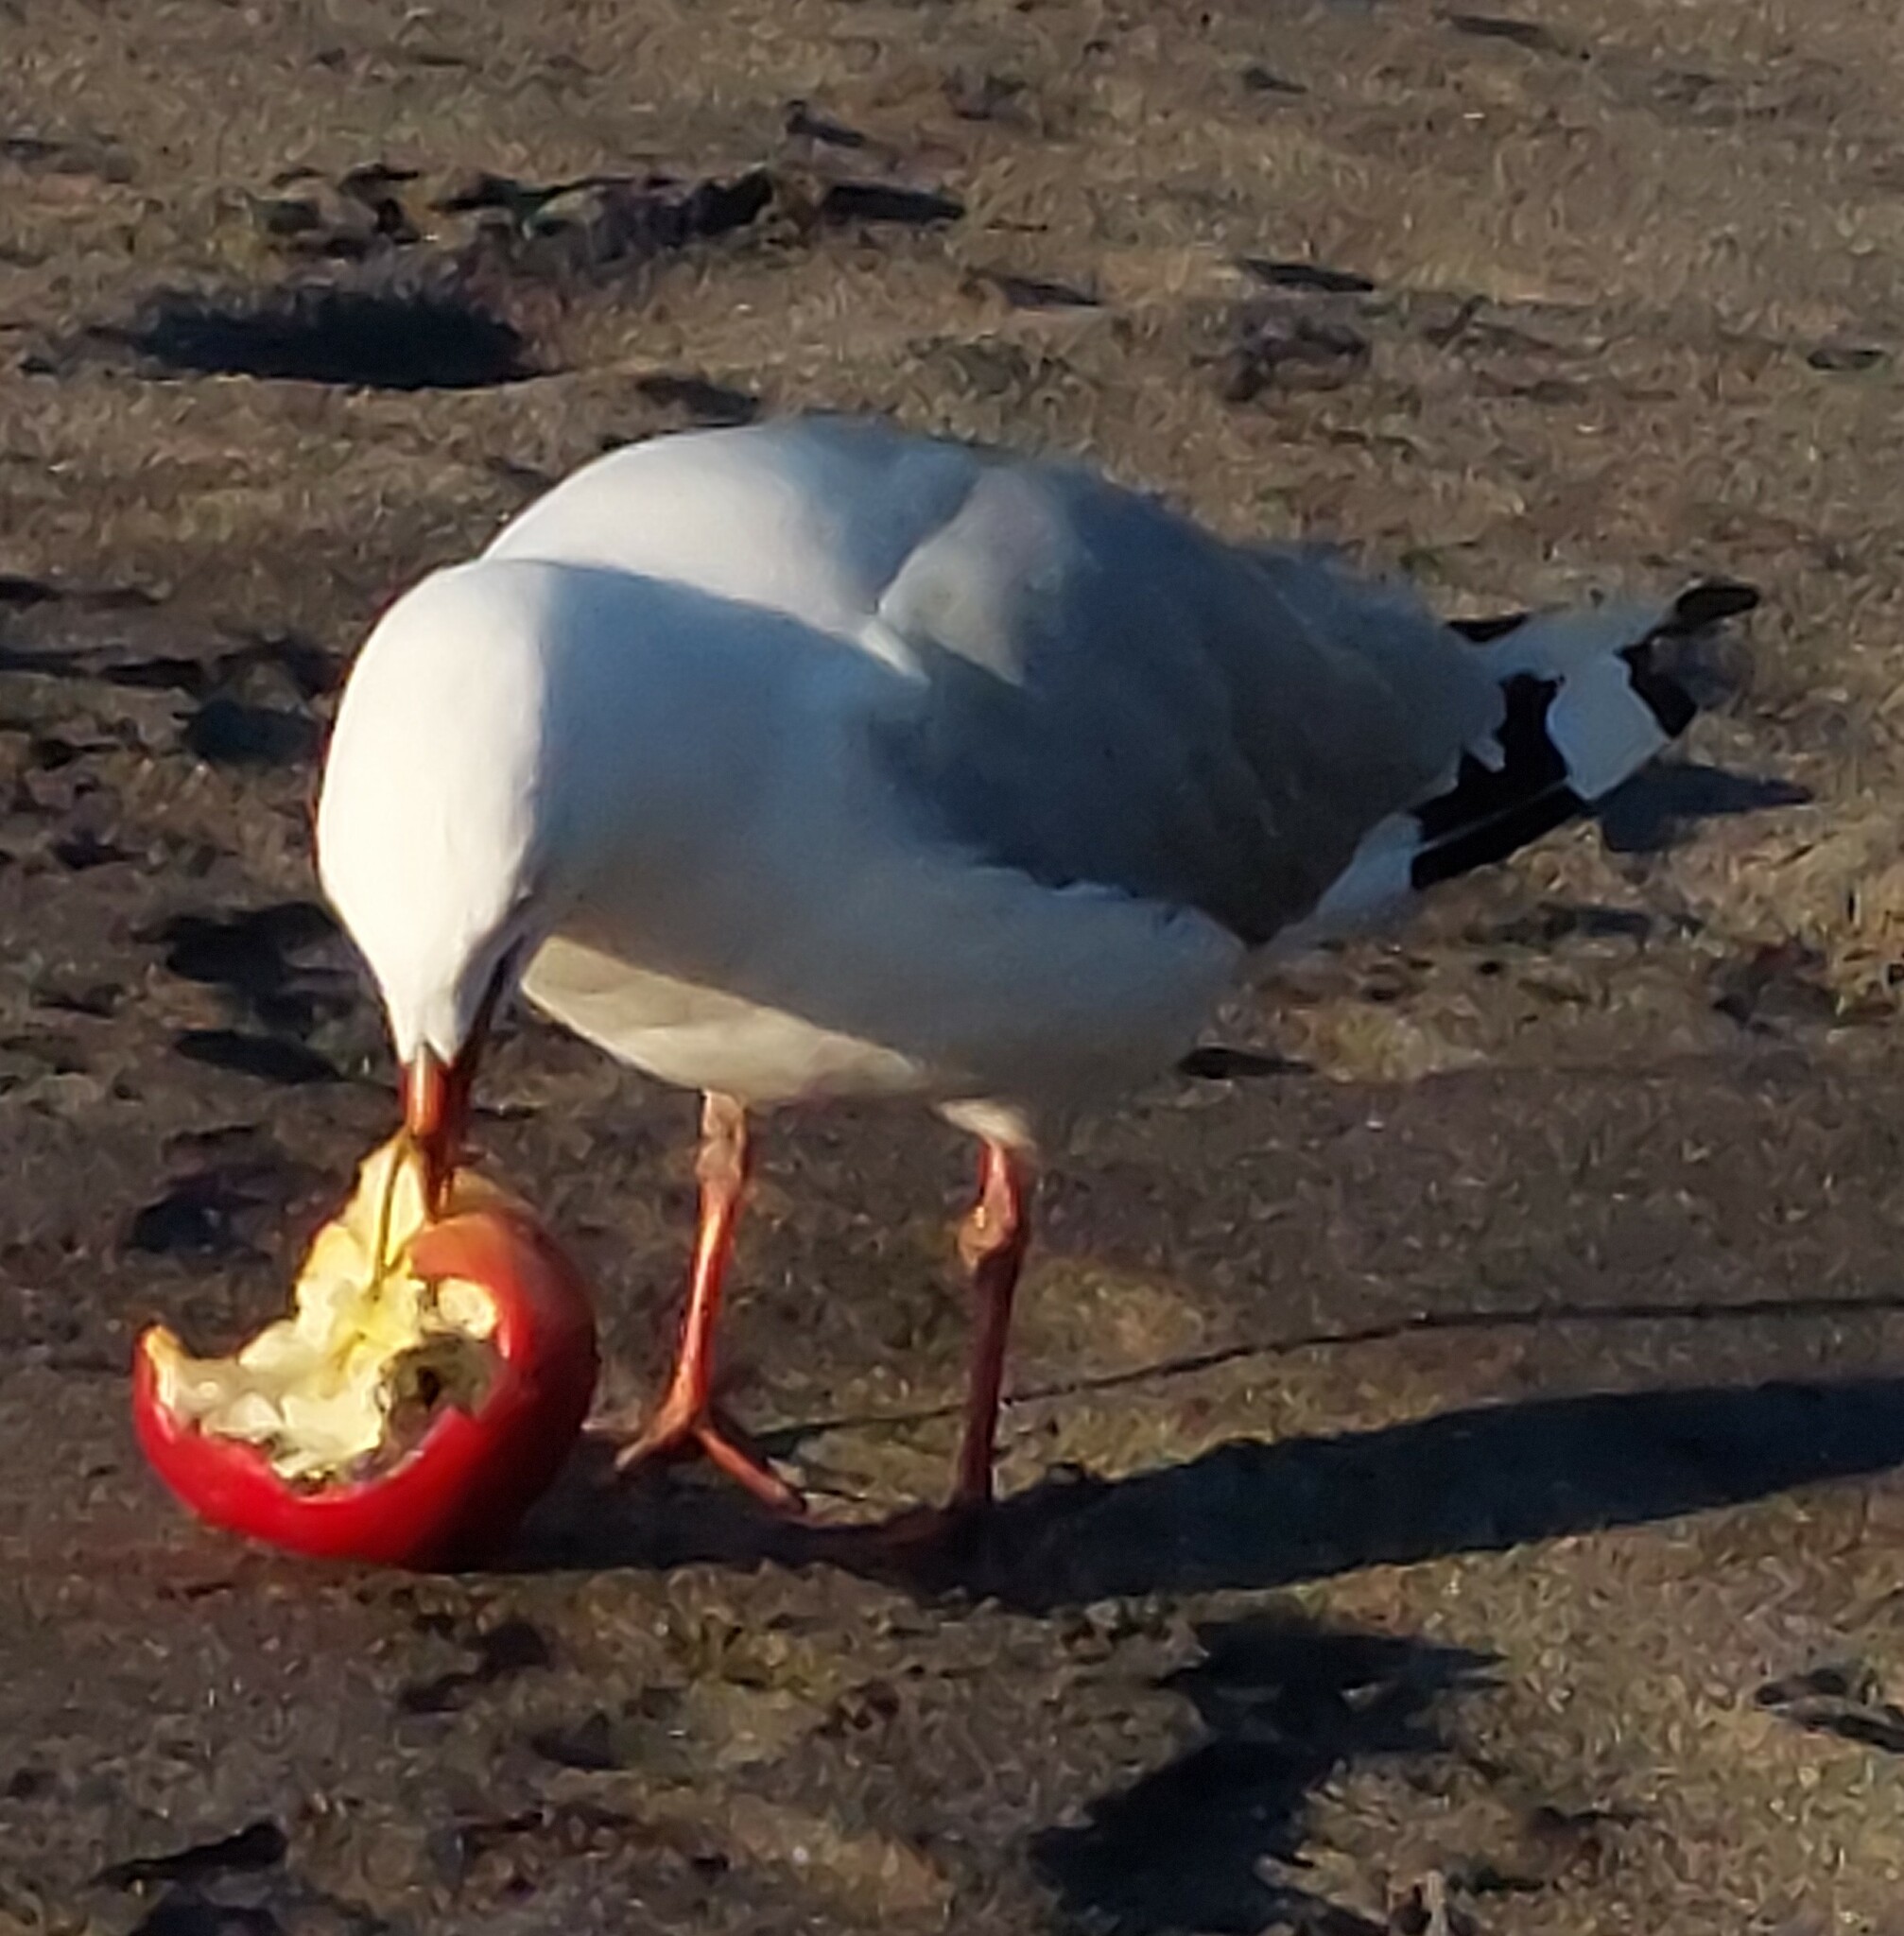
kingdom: Animalia
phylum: Chordata
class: Aves
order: Charadriiformes
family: Laridae
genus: Chroicocephalus
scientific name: Chroicocephalus novaehollandiae
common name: Silver gull
